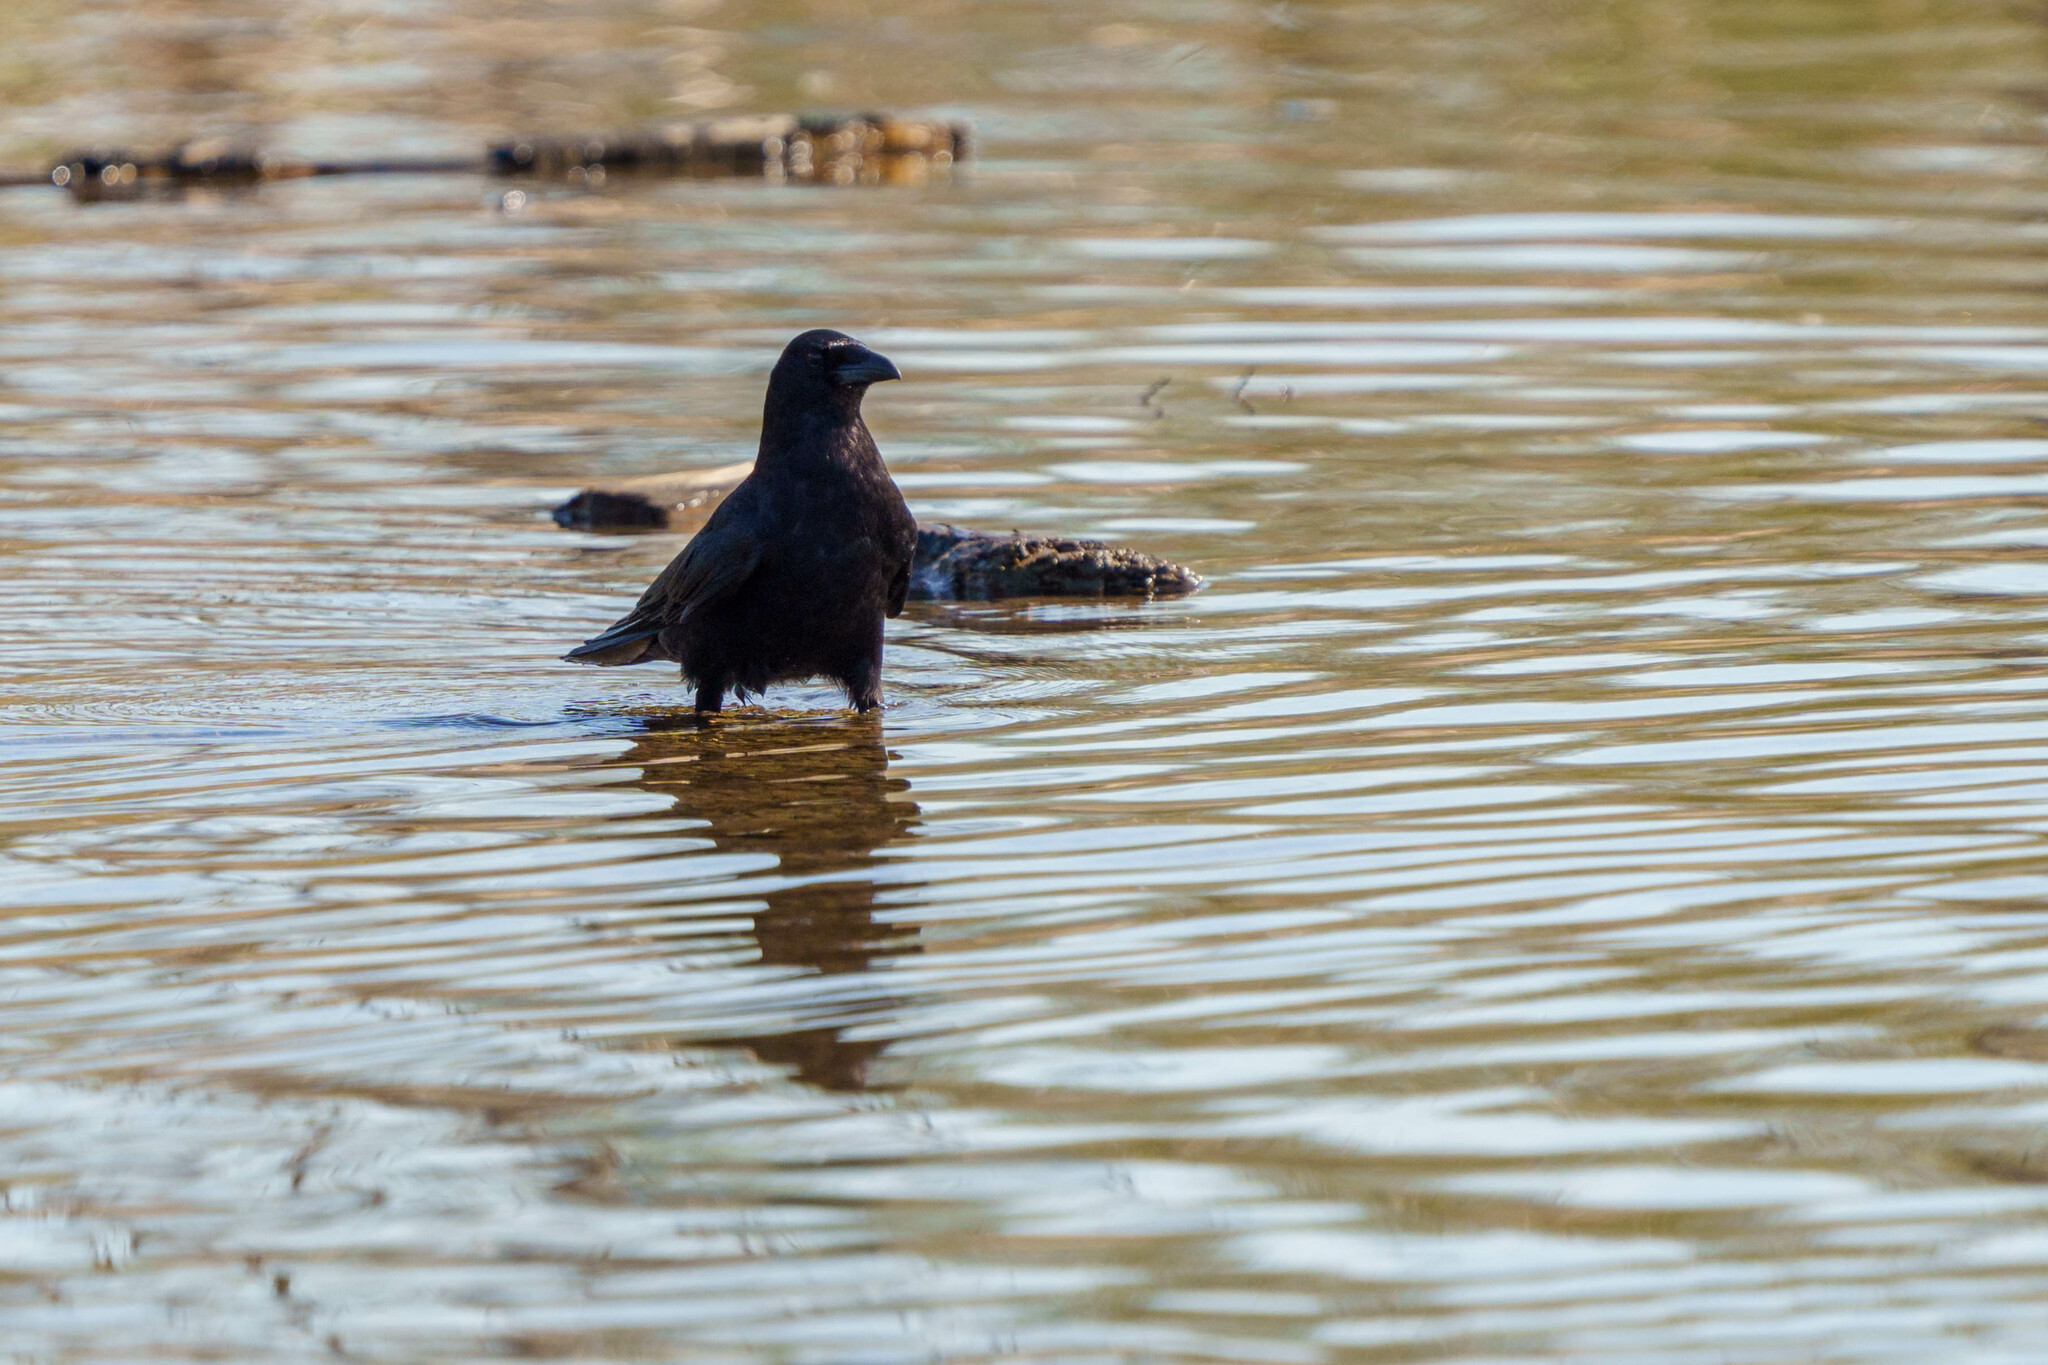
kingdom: Animalia
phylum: Chordata
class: Aves
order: Passeriformes
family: Corvidae
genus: Corvus
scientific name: Corvus brachyrhynchos
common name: American crow
